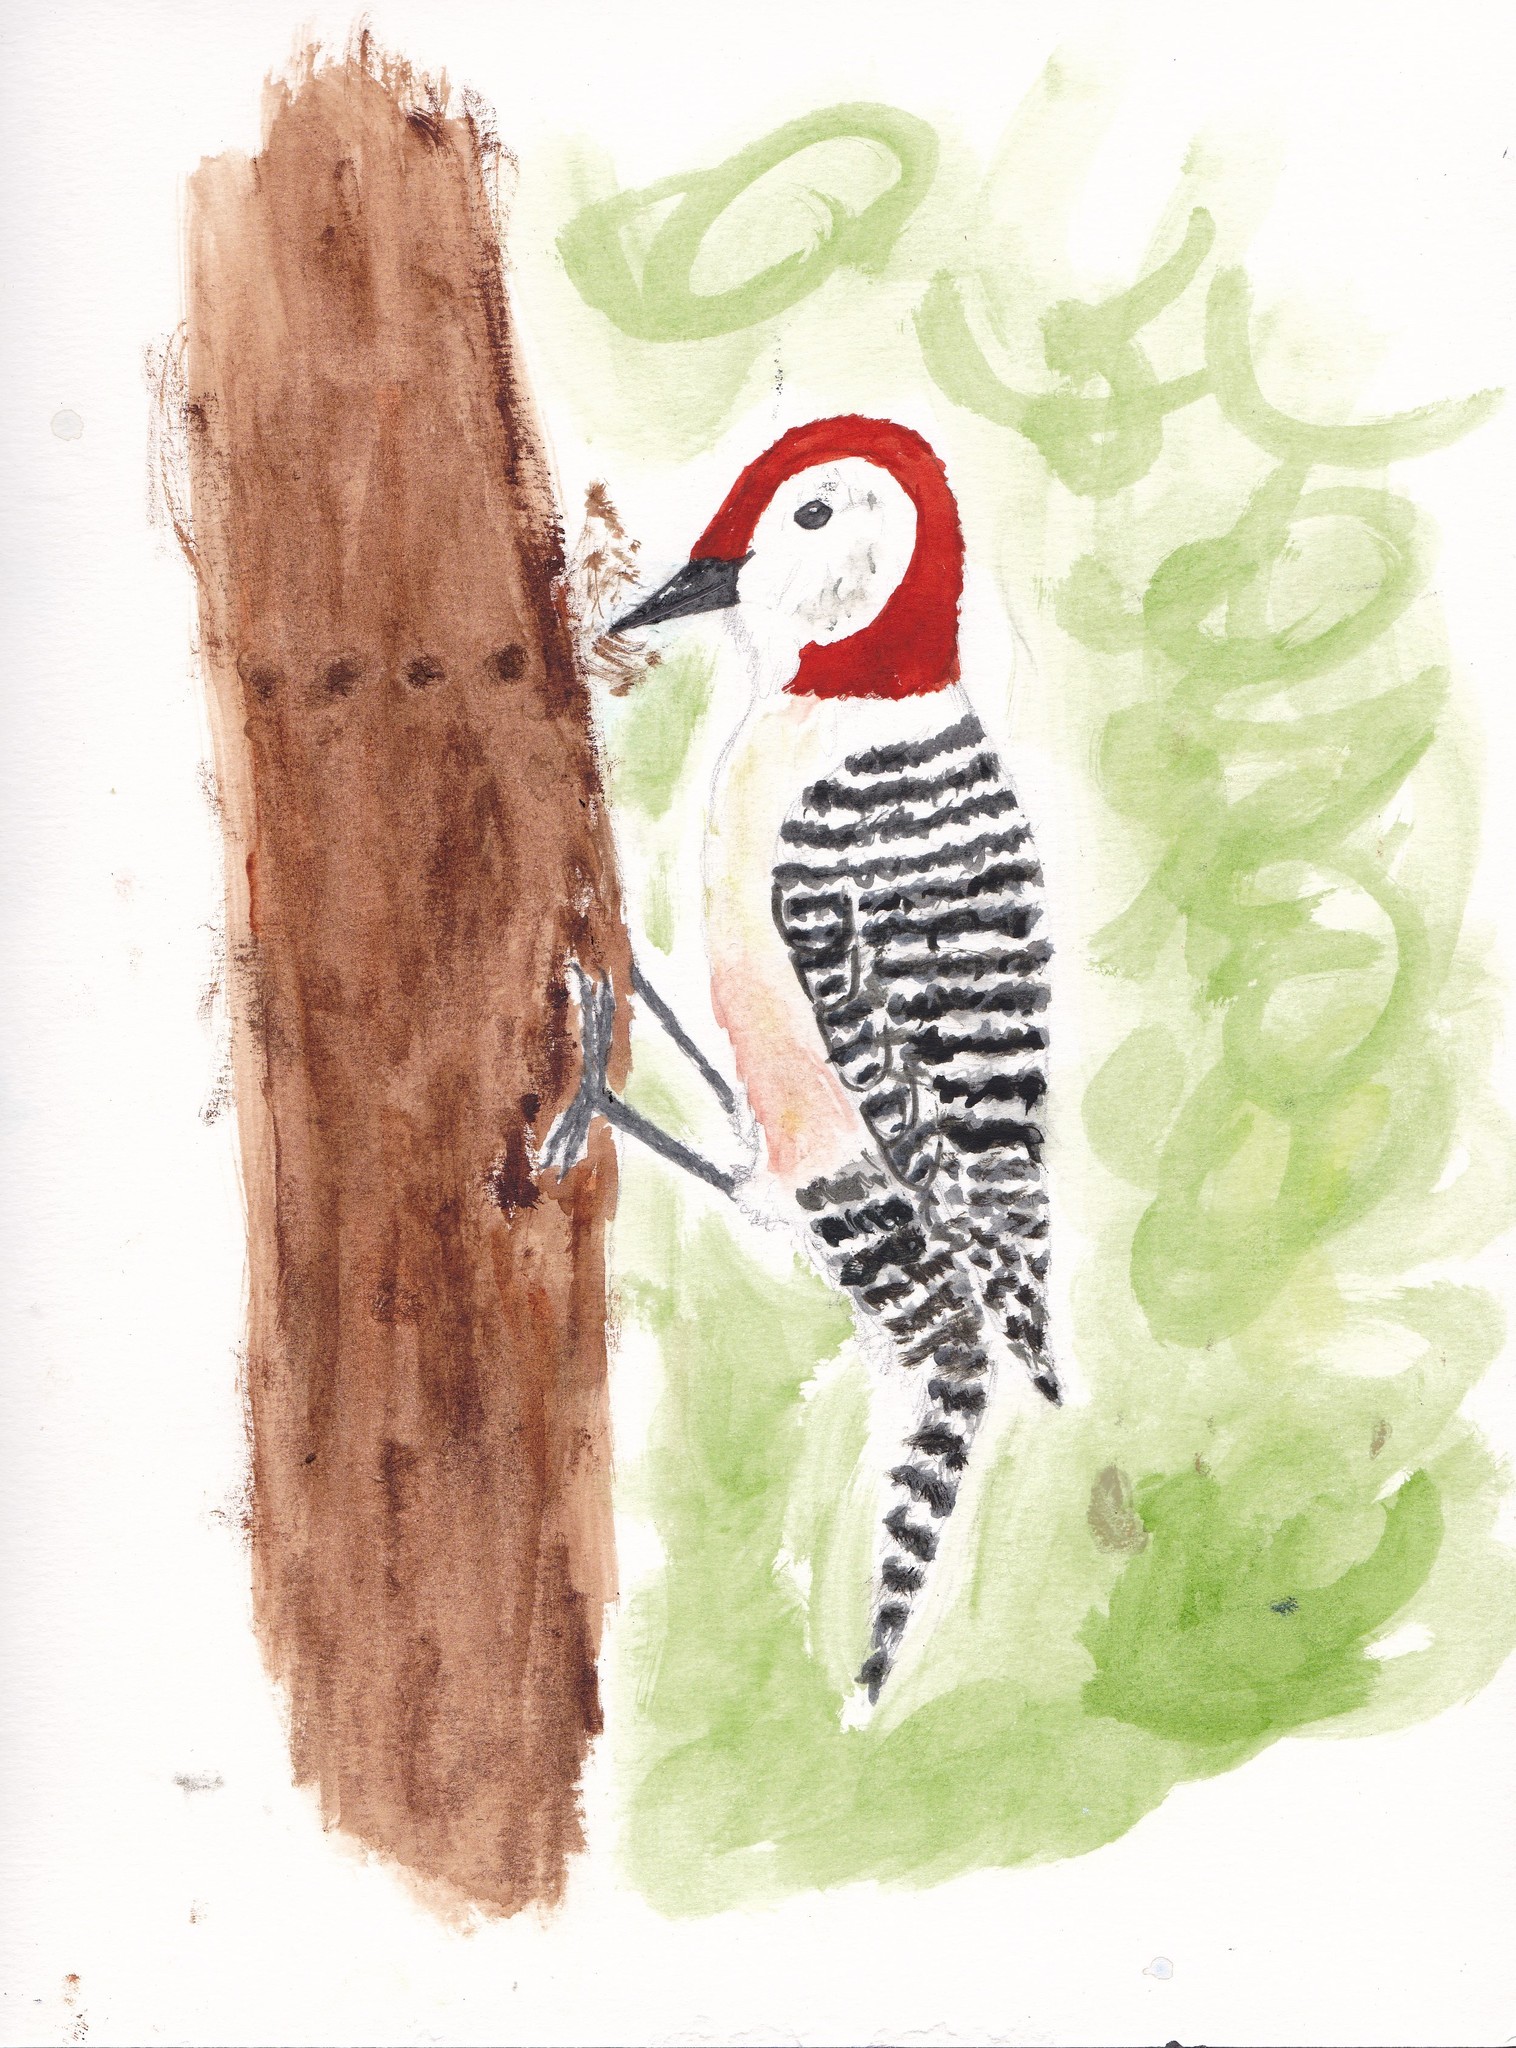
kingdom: Animalia
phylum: Chordata
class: Aves
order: Piciformes
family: Picidae
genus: Melanerpes
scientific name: Melanerpes carolinus
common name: Red-bellied woodpecker
